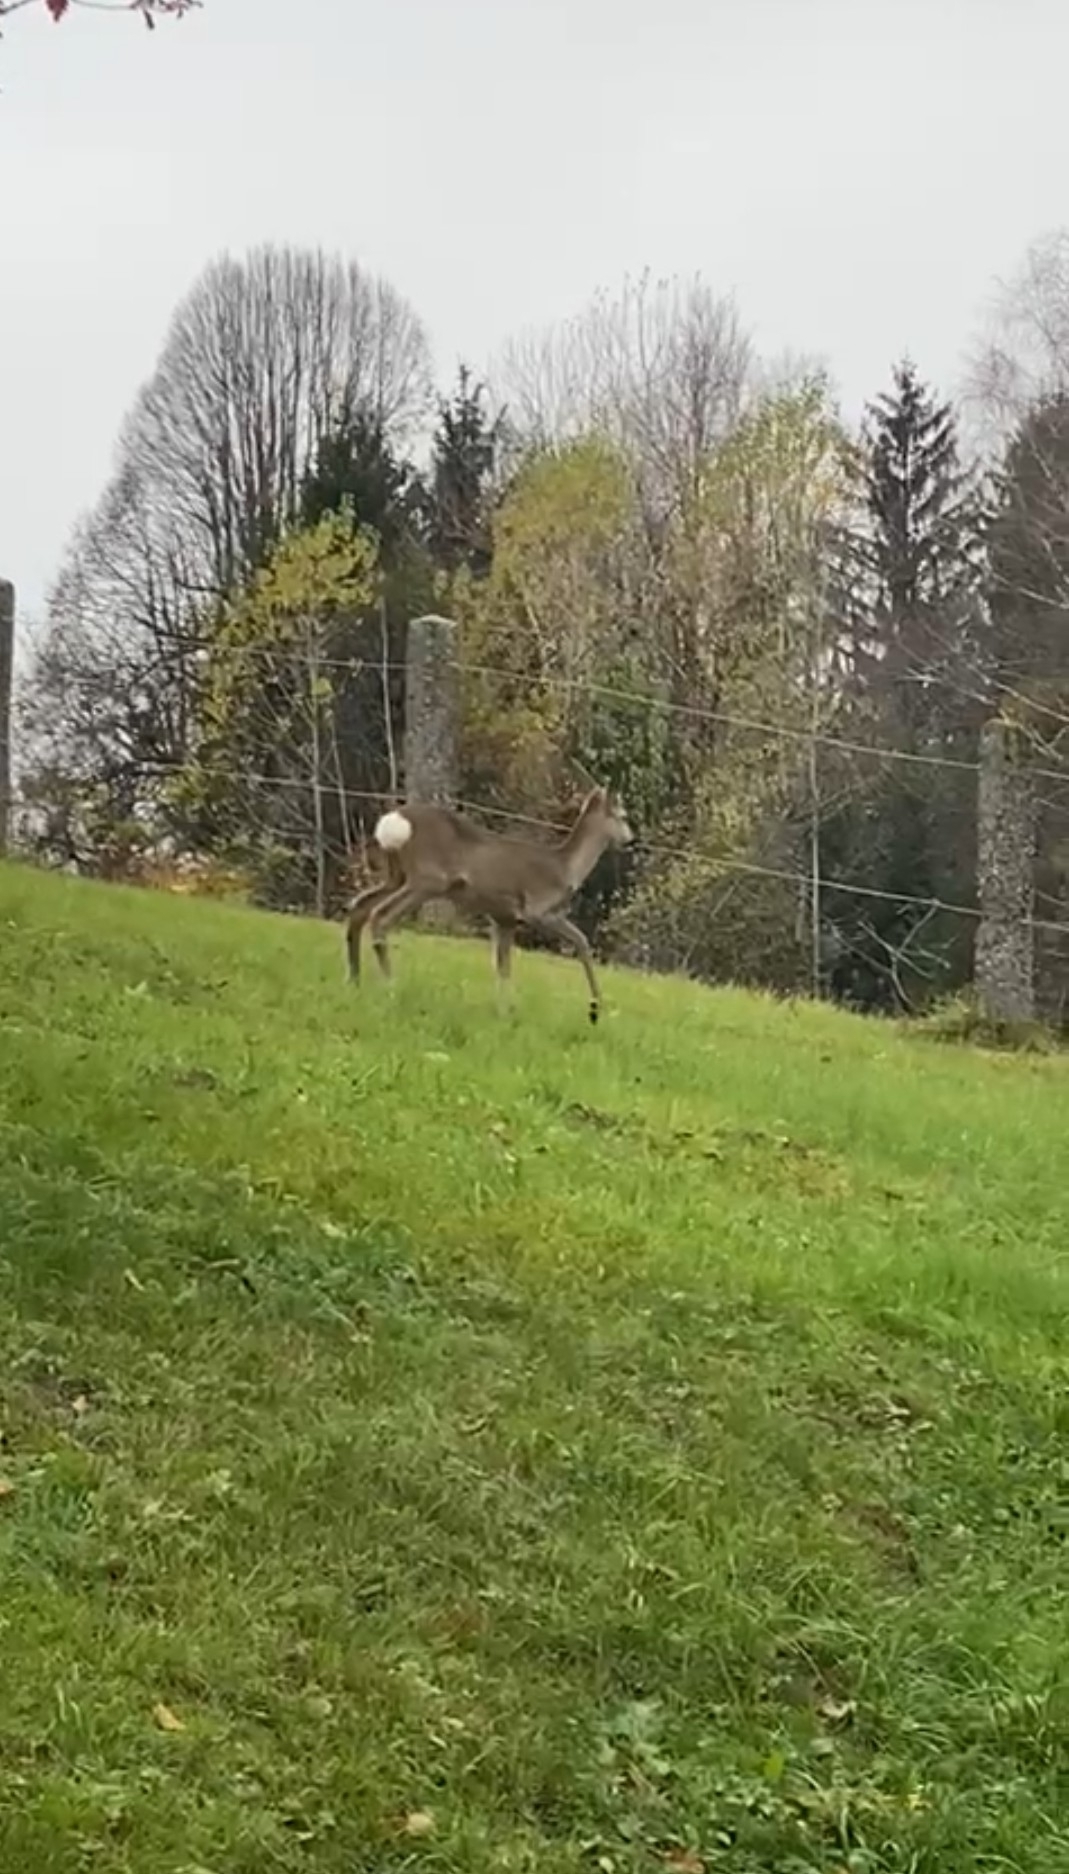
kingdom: Animalia
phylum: Chordata
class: Mammalia
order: Artiodactyla
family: Cervidae
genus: Capreolus
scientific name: Capreolus capreolus
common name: Western roe deer
